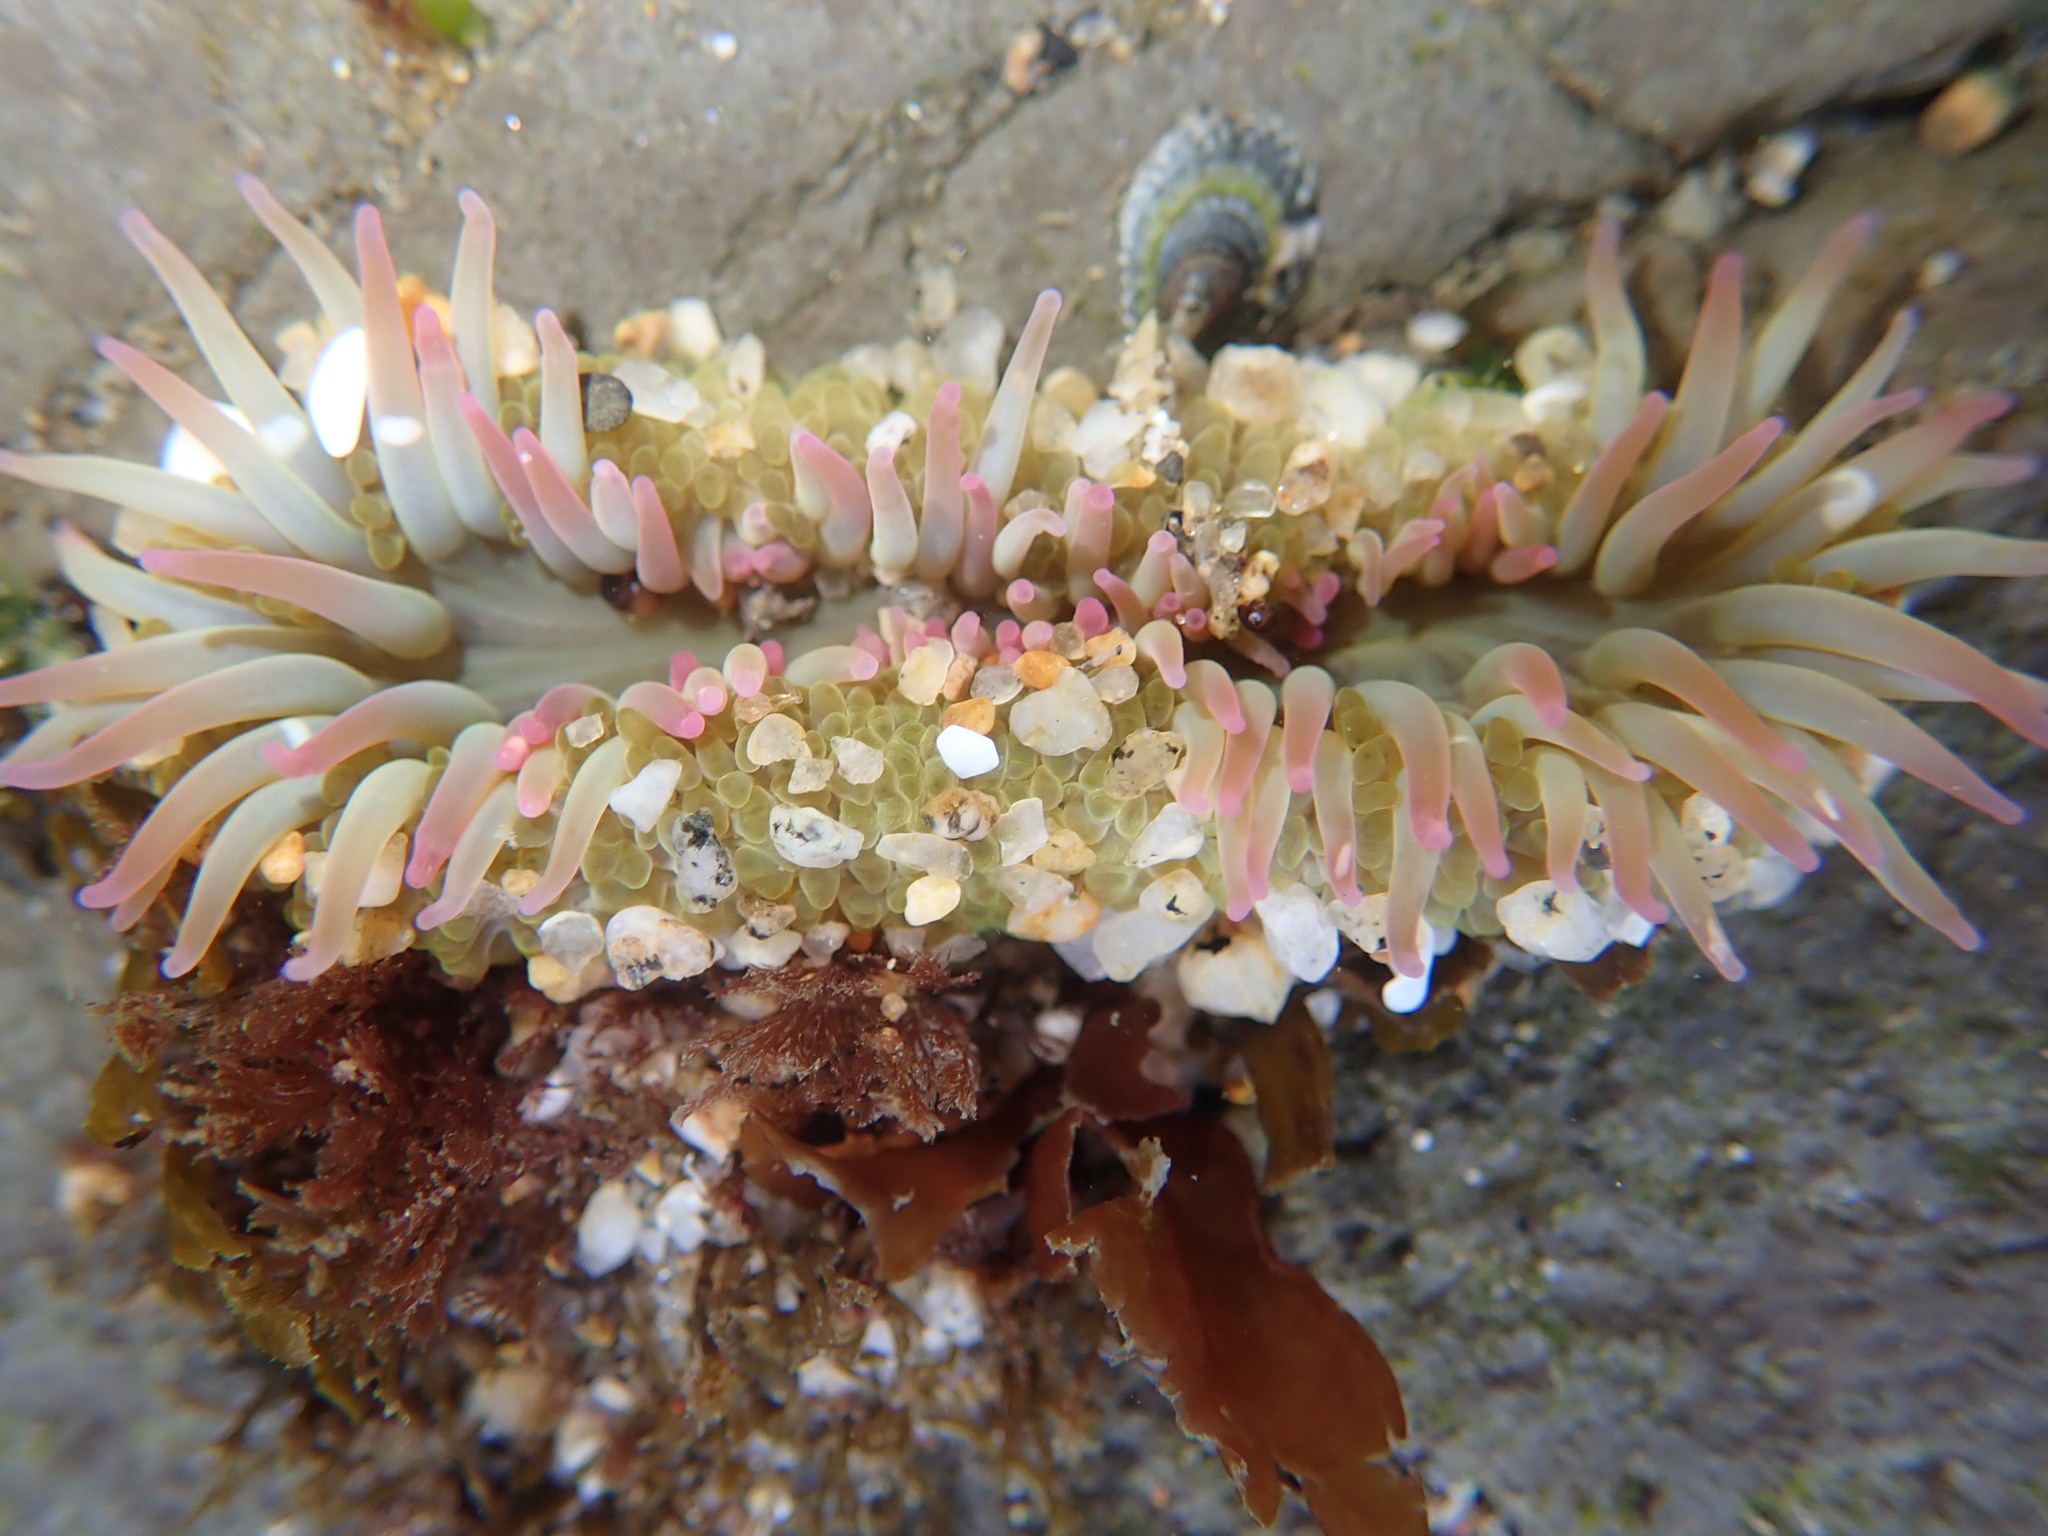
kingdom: Animalia
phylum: Cnidaria
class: Anthozoa
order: Actiniaria
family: Actiniidae
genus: Anthopleura
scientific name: Anthopleura elegantissima
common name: Clonal anemone
